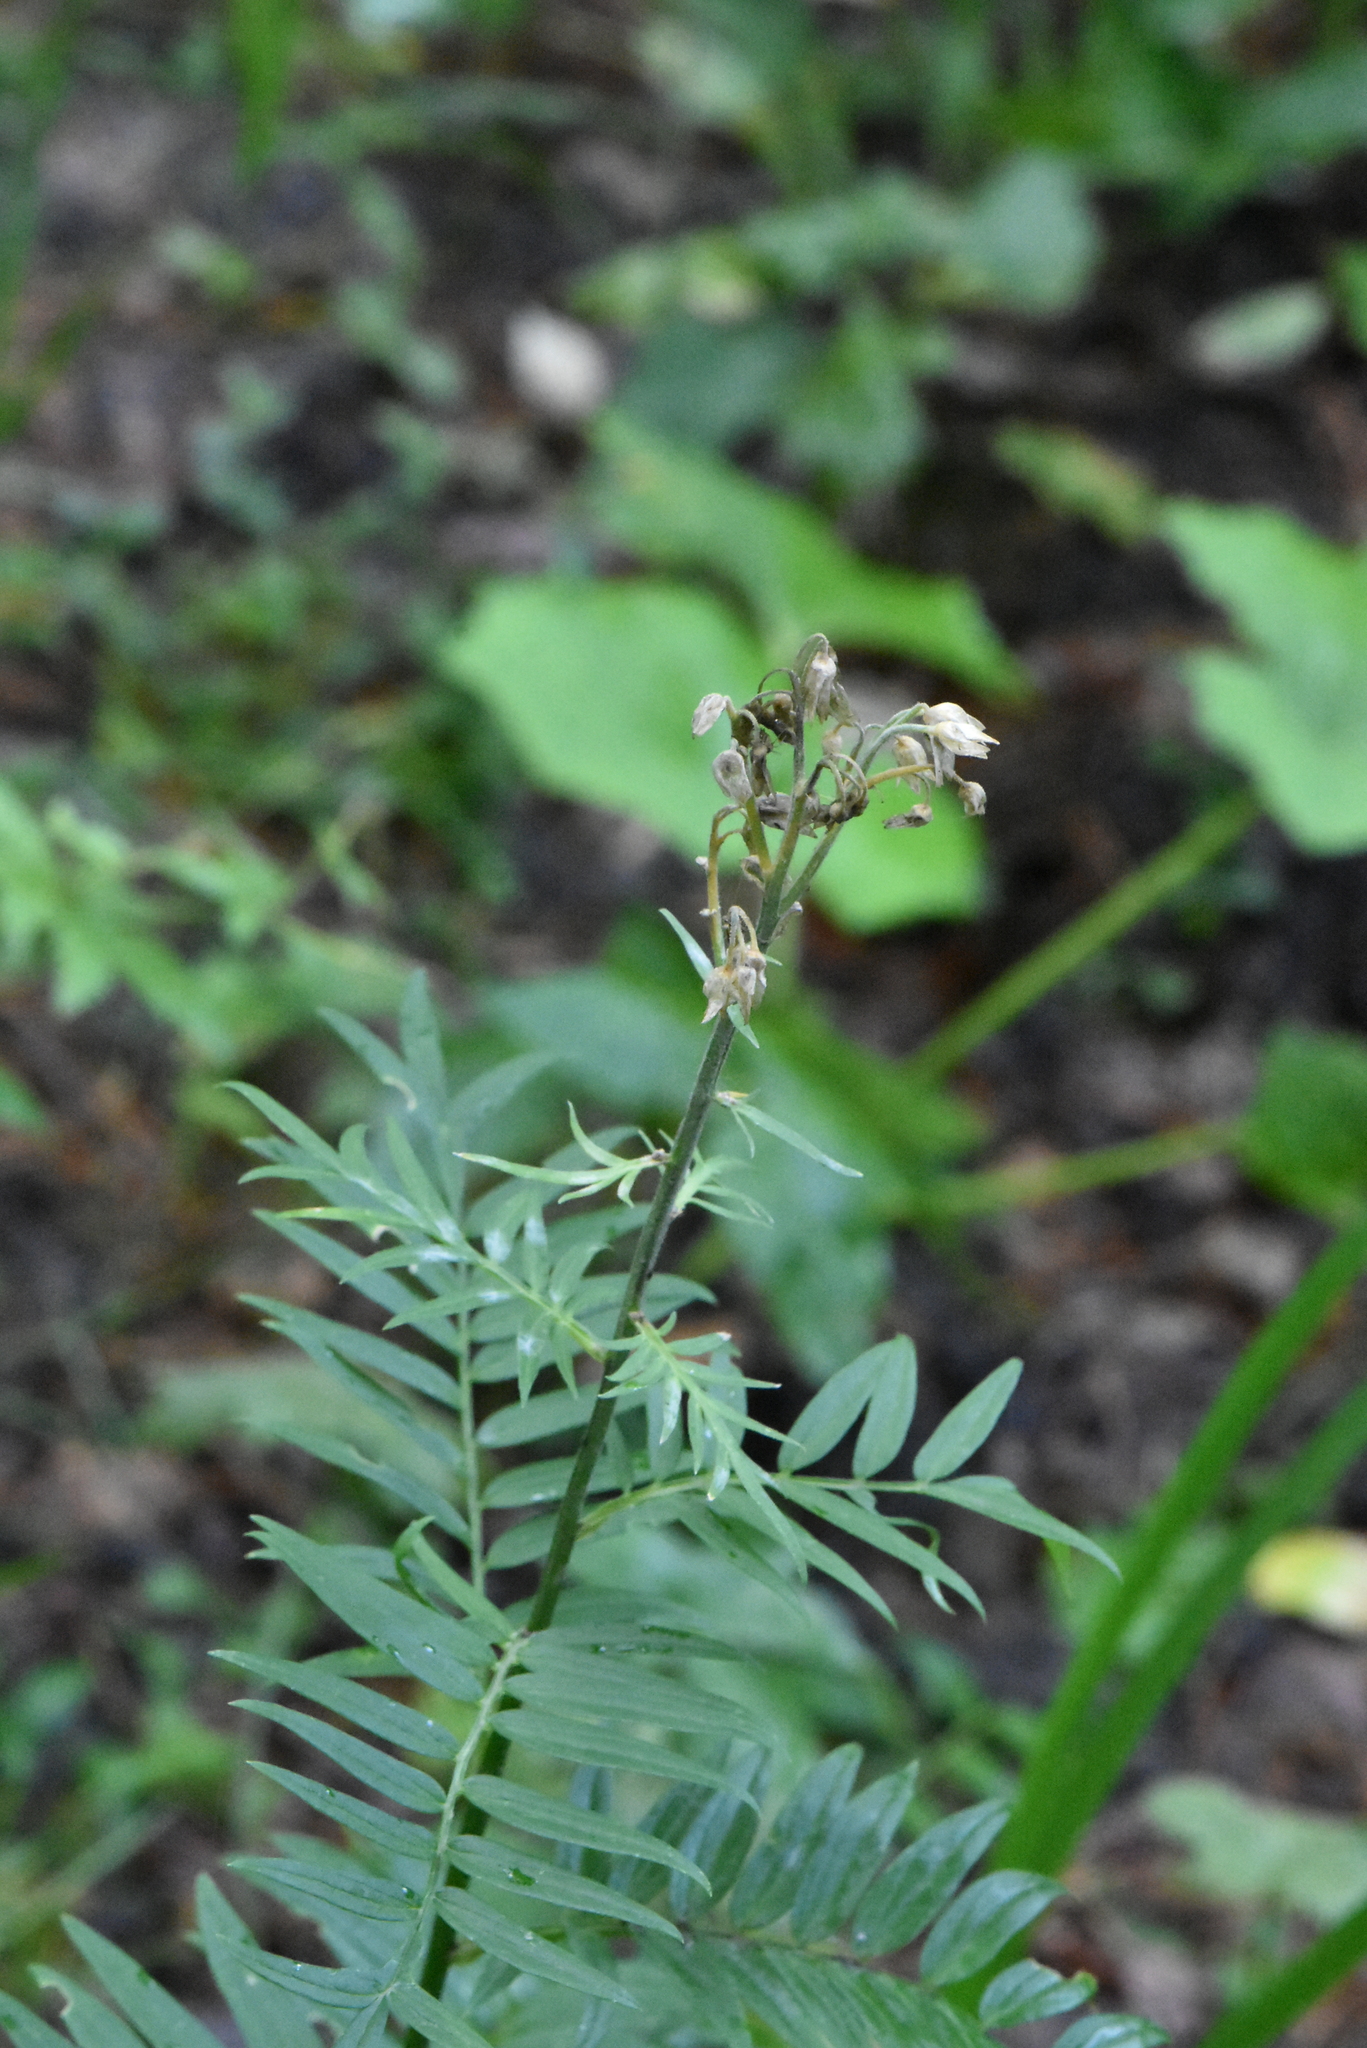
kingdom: Plantae
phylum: Tracheophyta
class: Magnoliopsida
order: Ericales
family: Polemoniaceae
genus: Polemonium
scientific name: Polemonium caeruleum
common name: Jacob's-ladder
